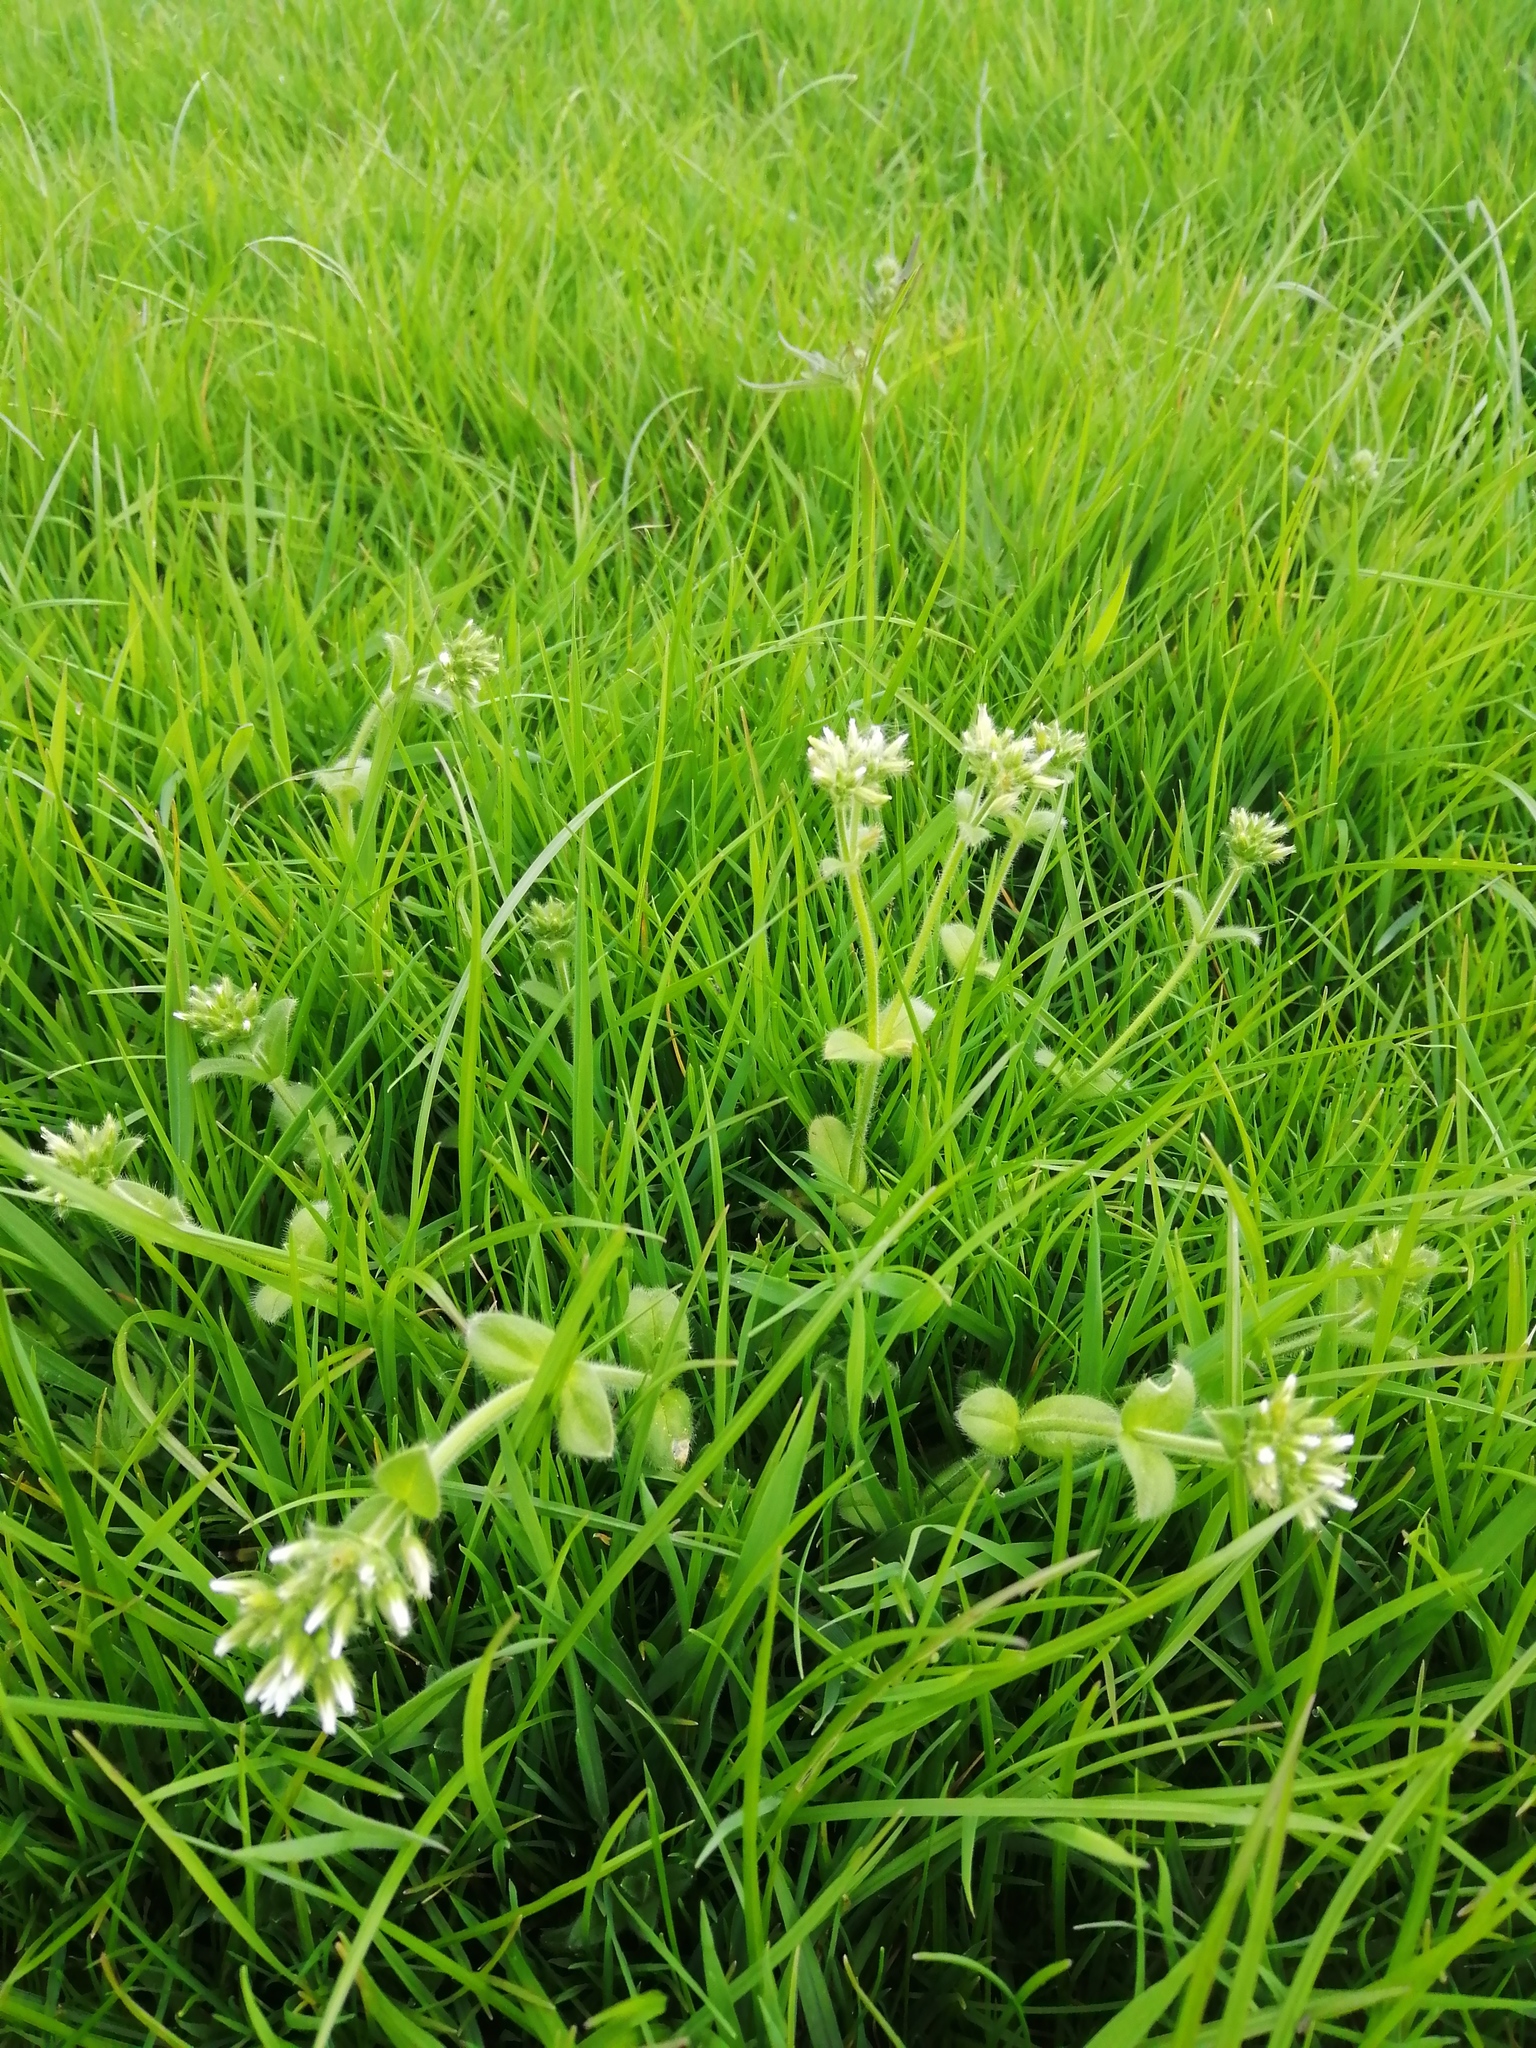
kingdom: Plantae
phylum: Tracheophyta
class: Magnoliopsida
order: Caryophyllales
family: Caryophyllaceae
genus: Cerastium
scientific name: Cerastium glomeratum
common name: Sticky chickweed
